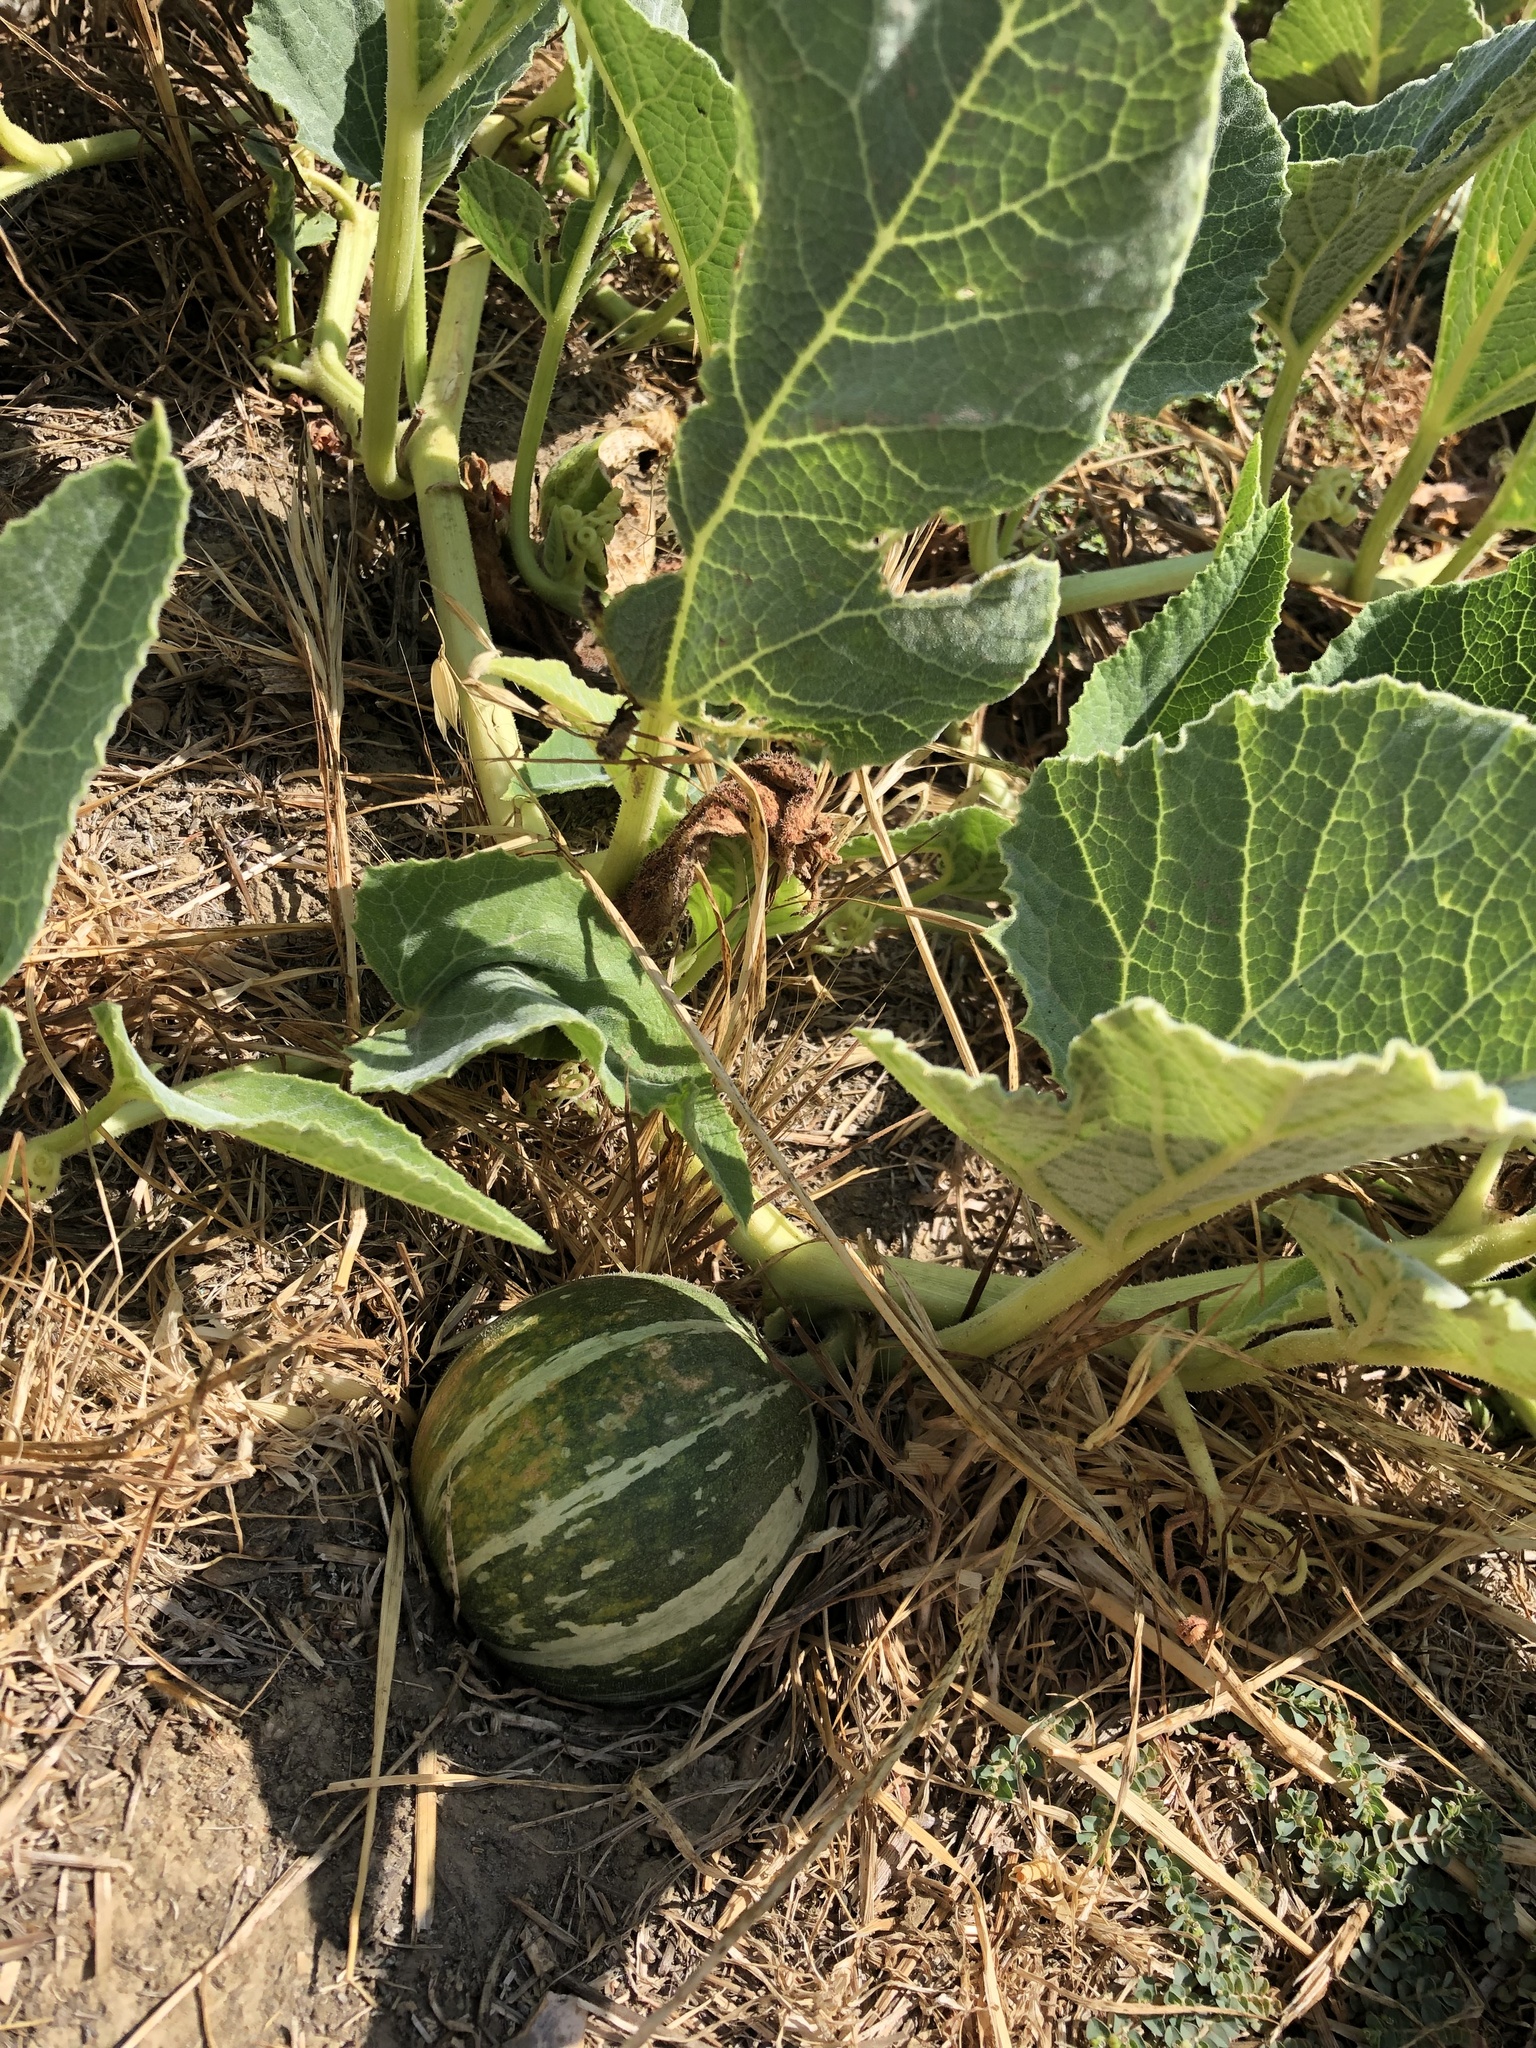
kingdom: Plantae
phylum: Tracheophyta
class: Magnoliopsida
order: Cucurbitales
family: Cucurbitaceae
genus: Cucurbita
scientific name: Cucurbita foetidissima
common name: Buffalo gourd
